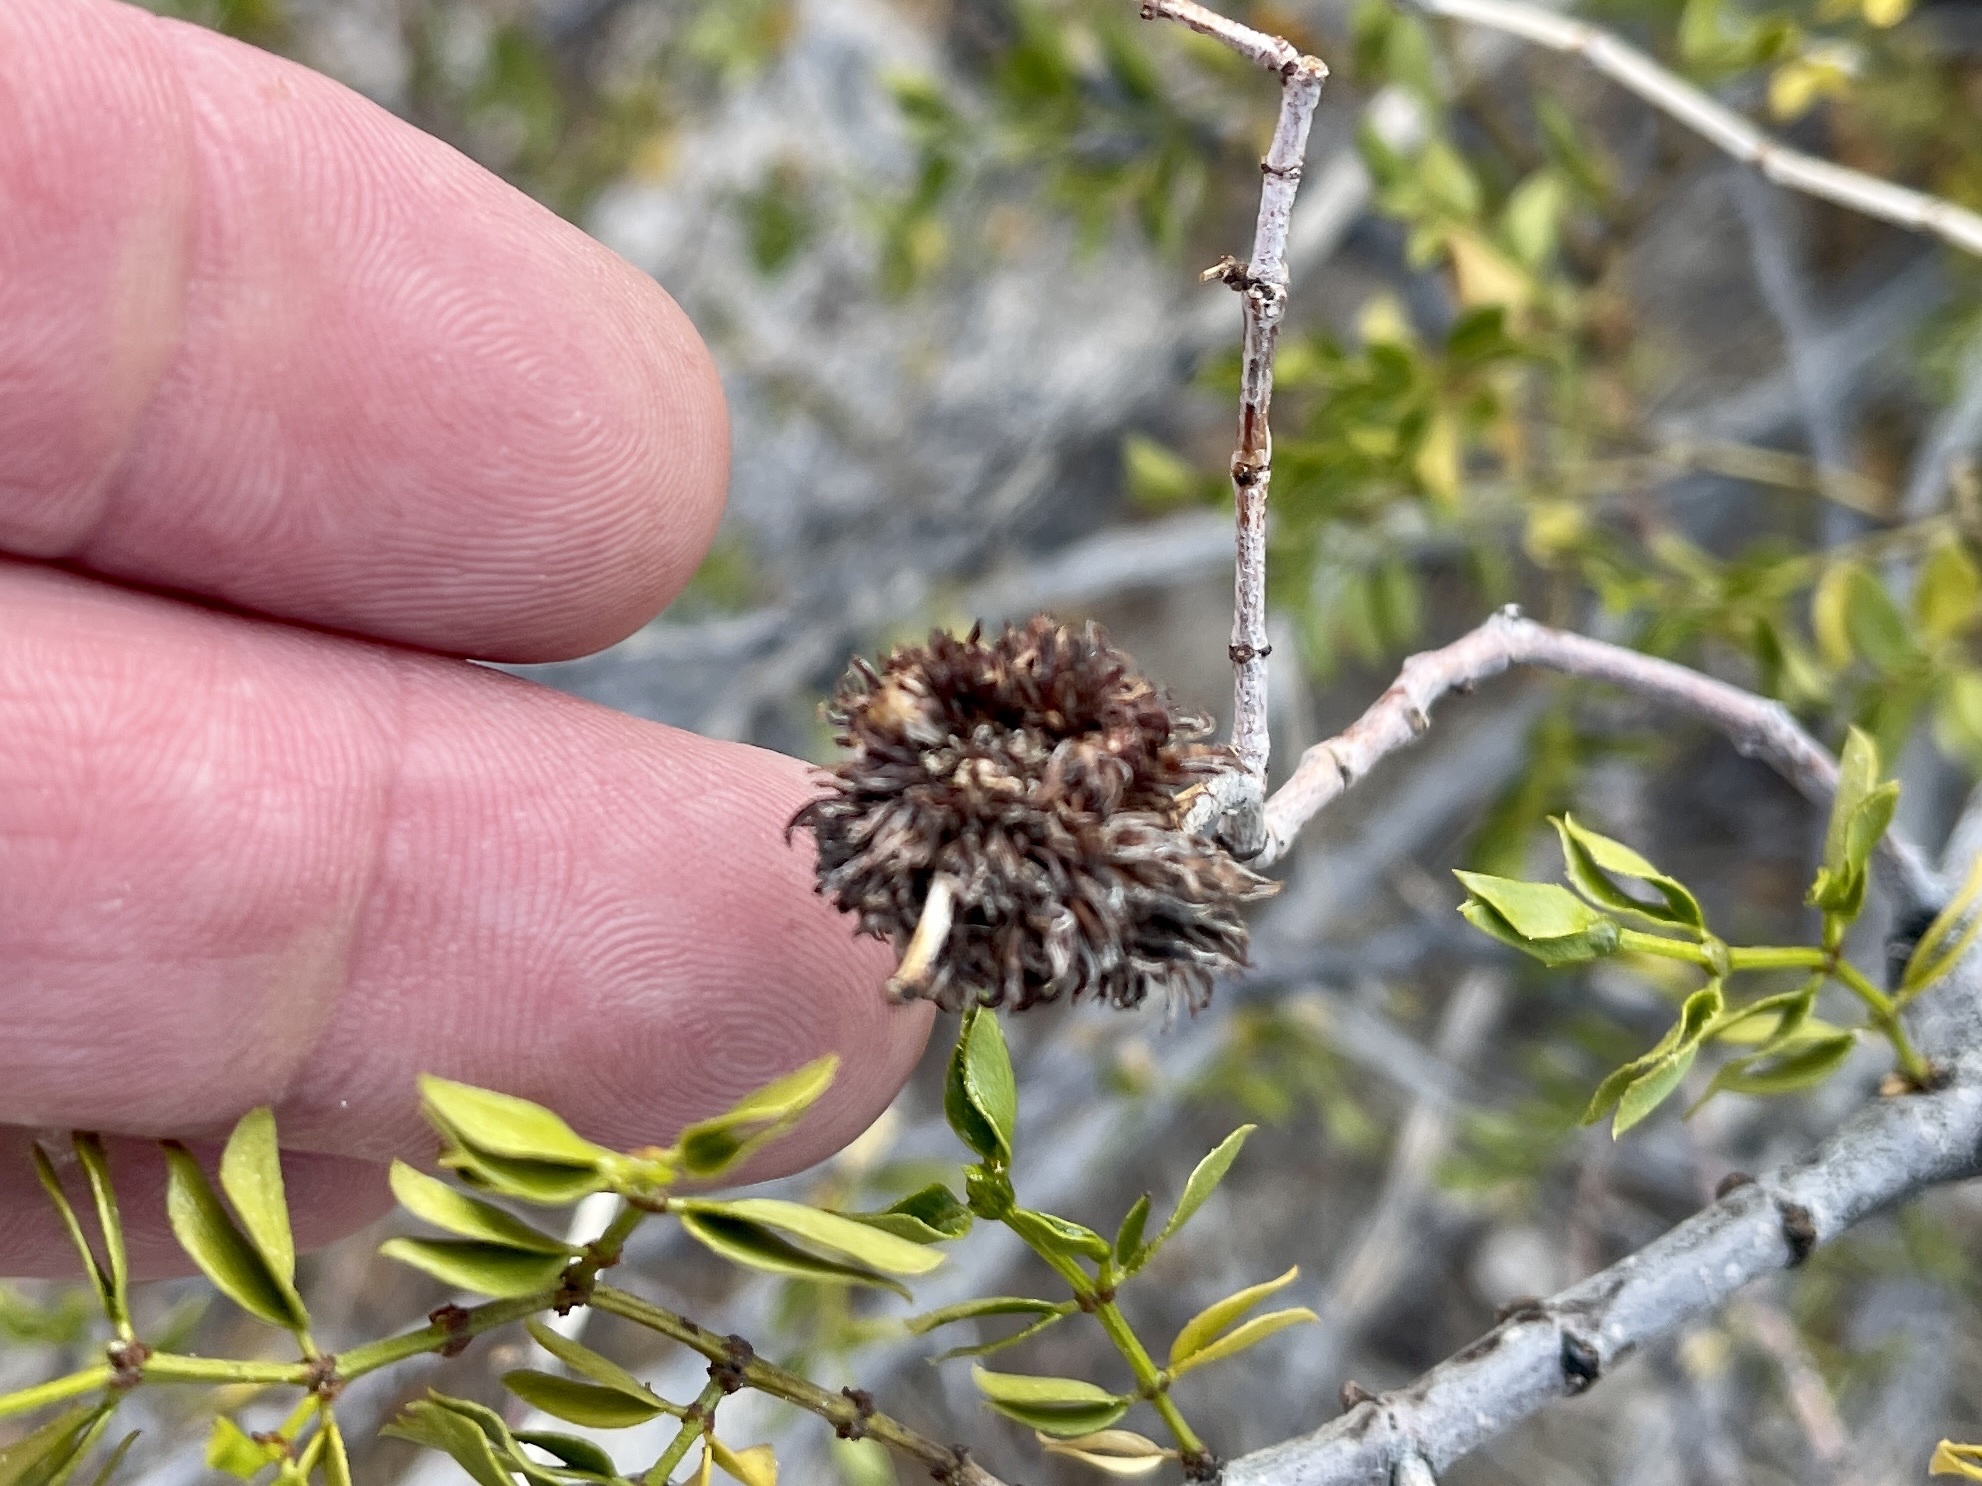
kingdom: Animalia
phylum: Arthropoda
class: Insecta
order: Diptera
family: Cecidomyiidae
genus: Asphondylia
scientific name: Asphondylia auripila
